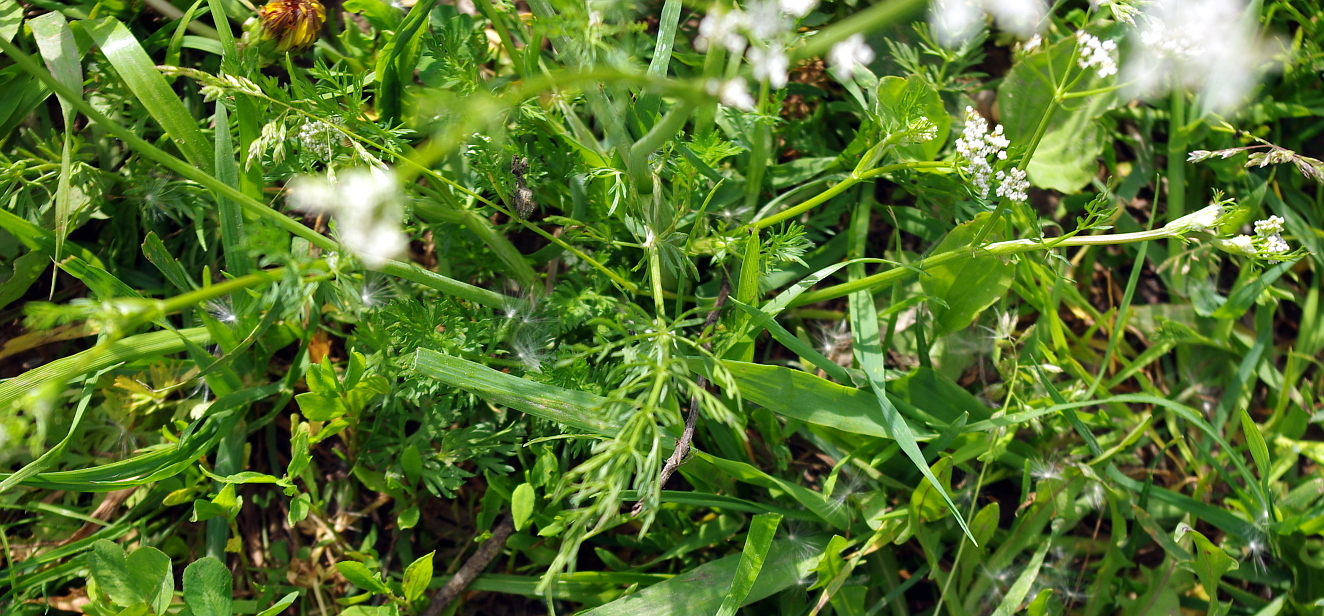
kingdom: Plantae
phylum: Tracheophyta
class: Magnoliopsida
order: Apiales
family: Apiaceae
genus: Carum
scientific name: Carum carvi
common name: Caraway
